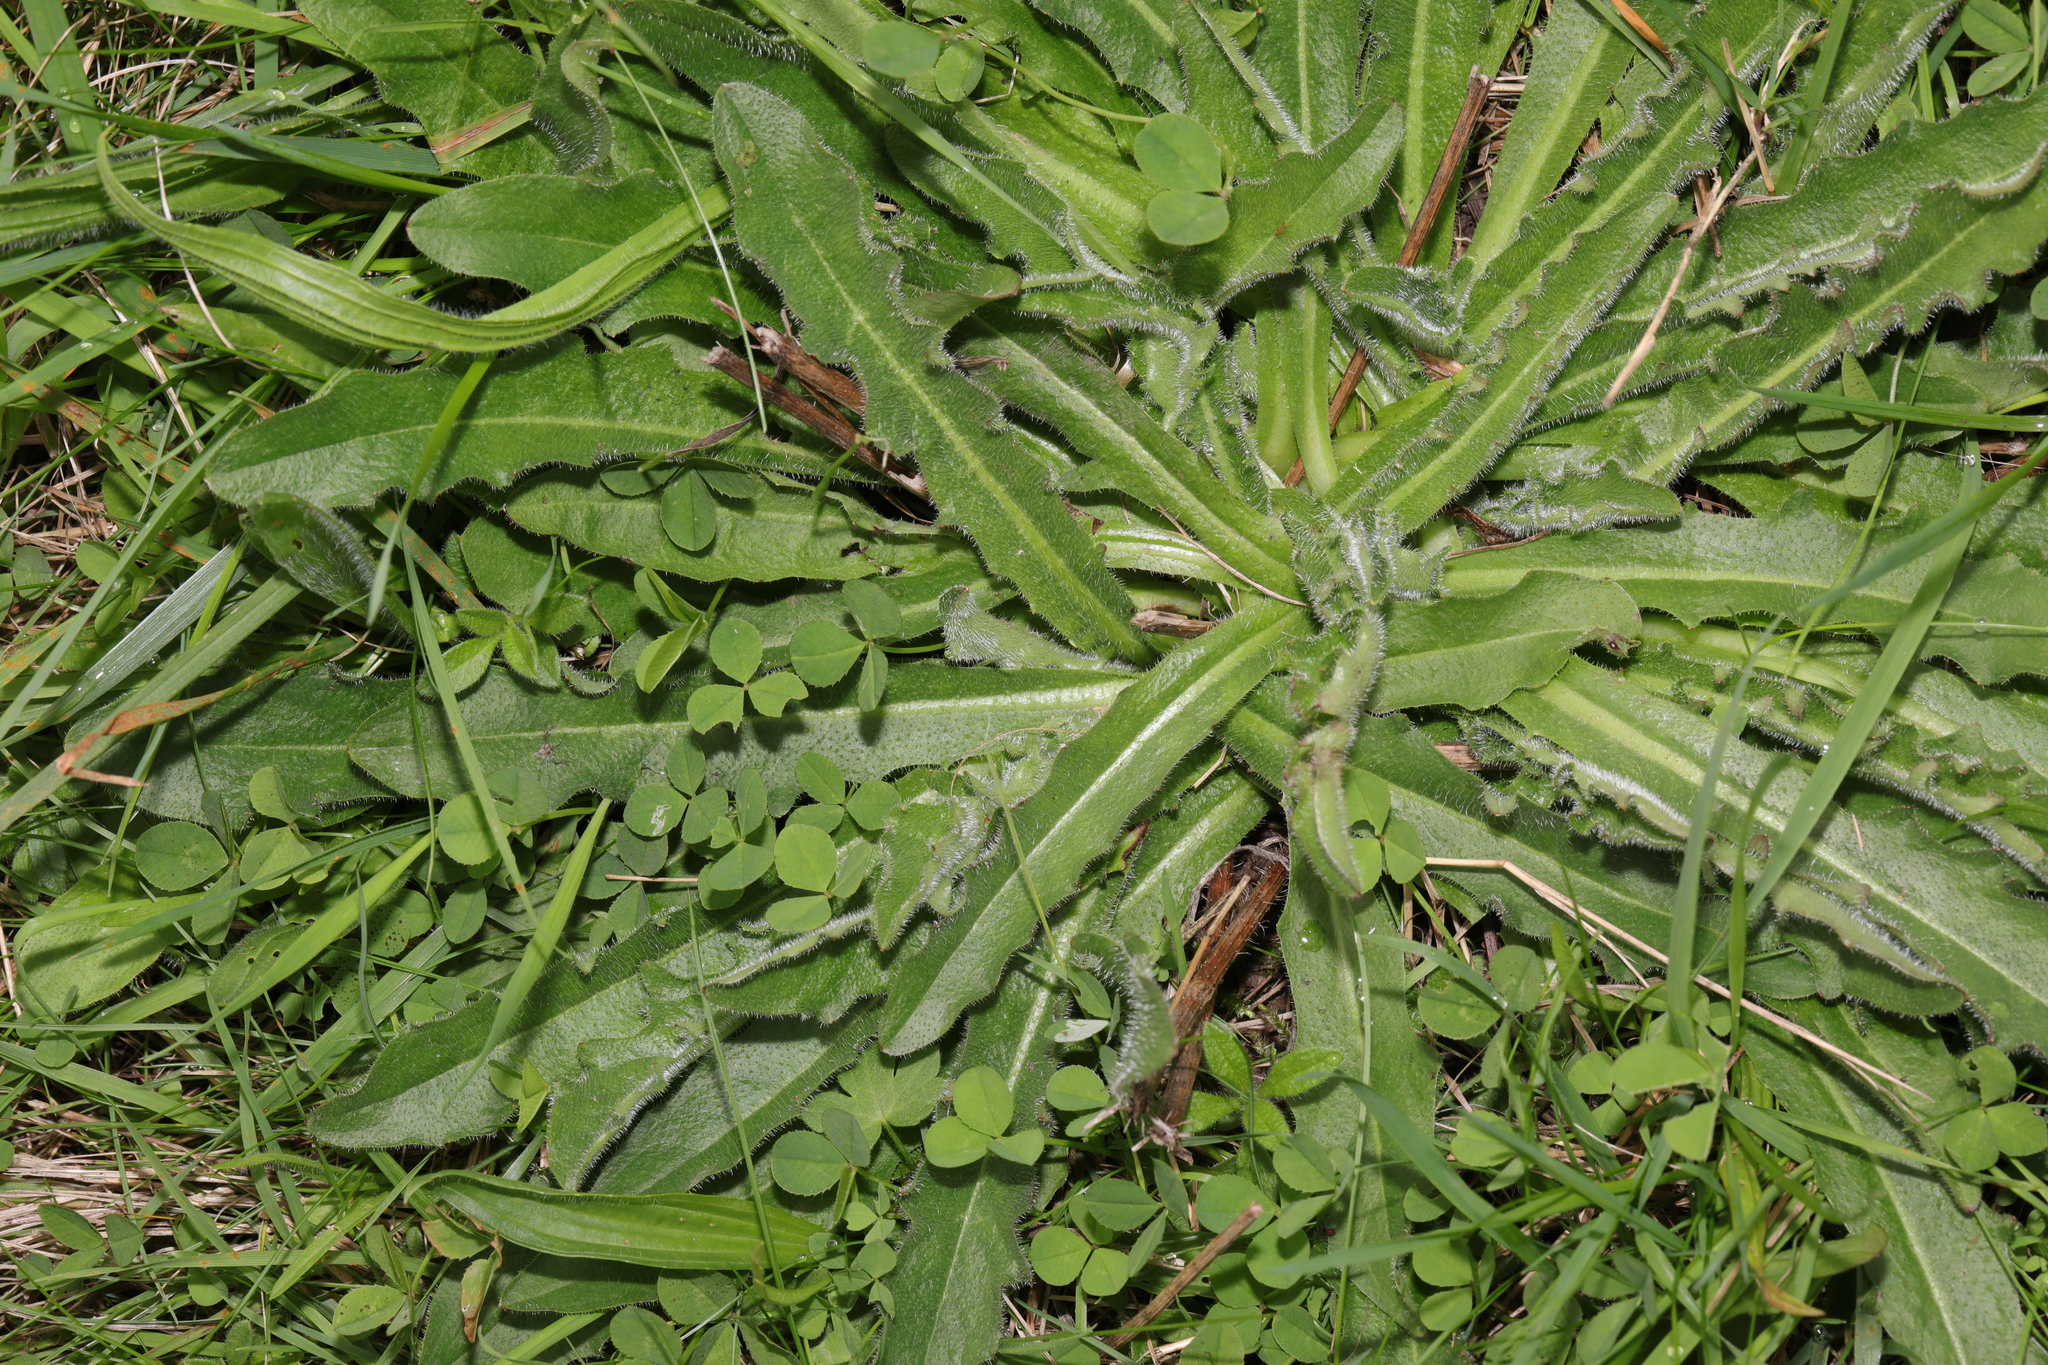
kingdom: Plantae
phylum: Tracheophyta
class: Magnoliopsida
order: Asterales
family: Asteraceae
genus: Hypochaeris
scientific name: Hypochaeris radicata
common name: Flatweed
